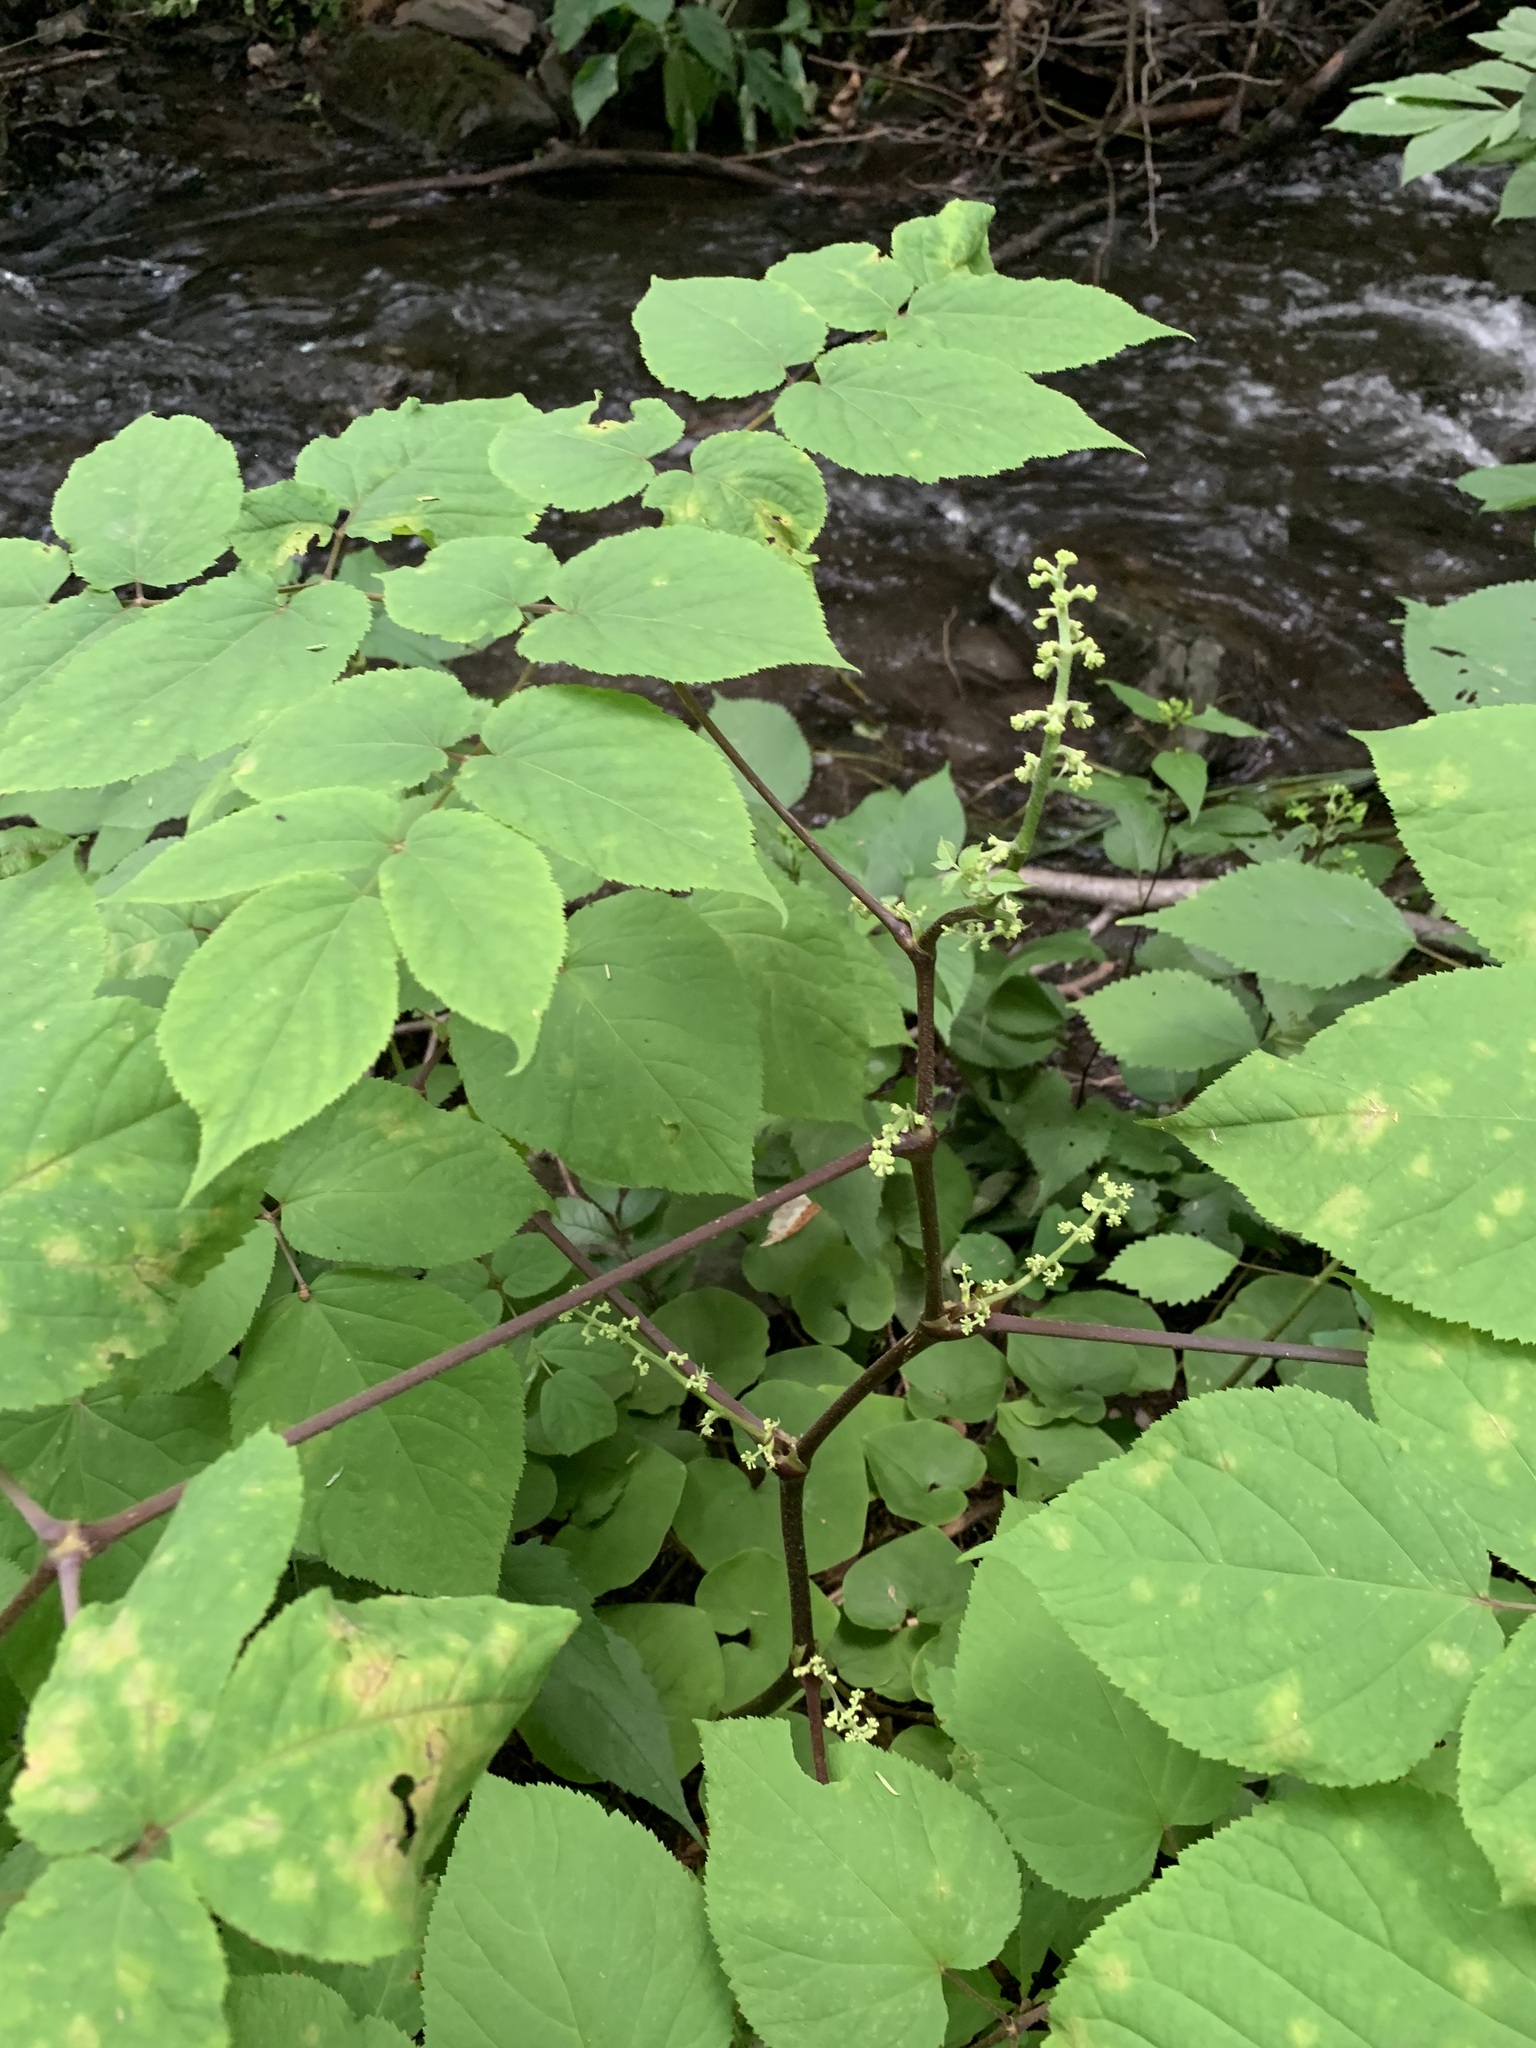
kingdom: Plantae
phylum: Tracheophyta
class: Magnoliopsida
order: Apiales
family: Araliaceae
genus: Aralia
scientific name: Aralia racemosa
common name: American-spikenard
